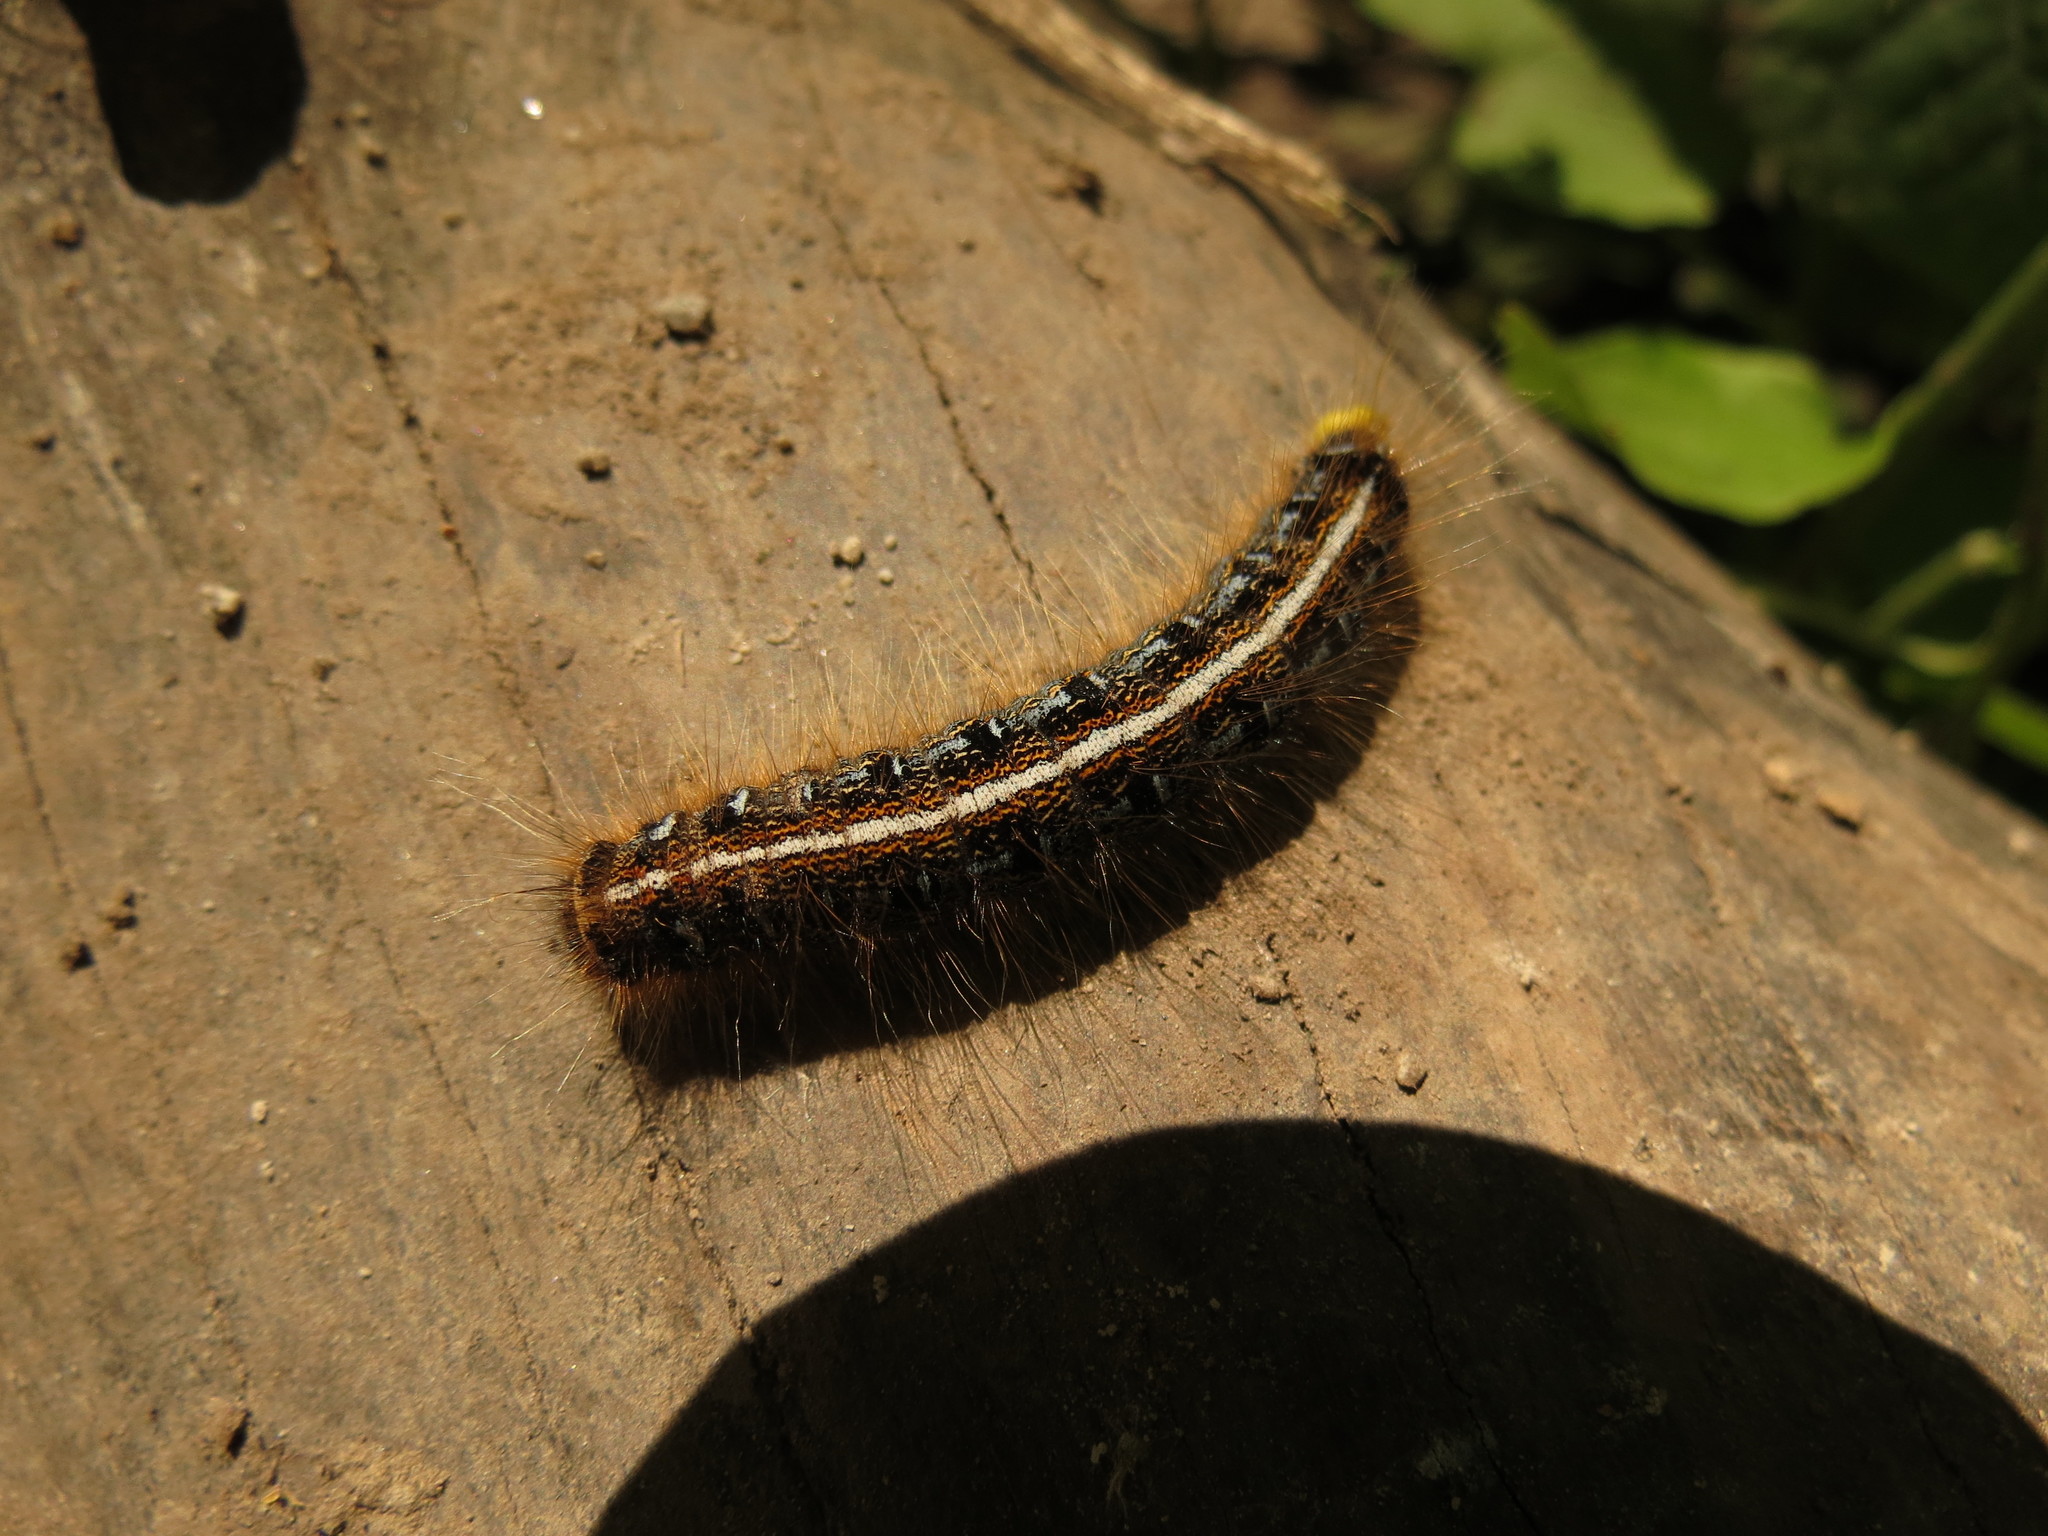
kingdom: Animalia
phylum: Arthropoda
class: Insecta
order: Lepidoptera
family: Lasiocampidae
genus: Malacosoma
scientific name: Malacosoma americana
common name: Eastern tent caterpillar moth
